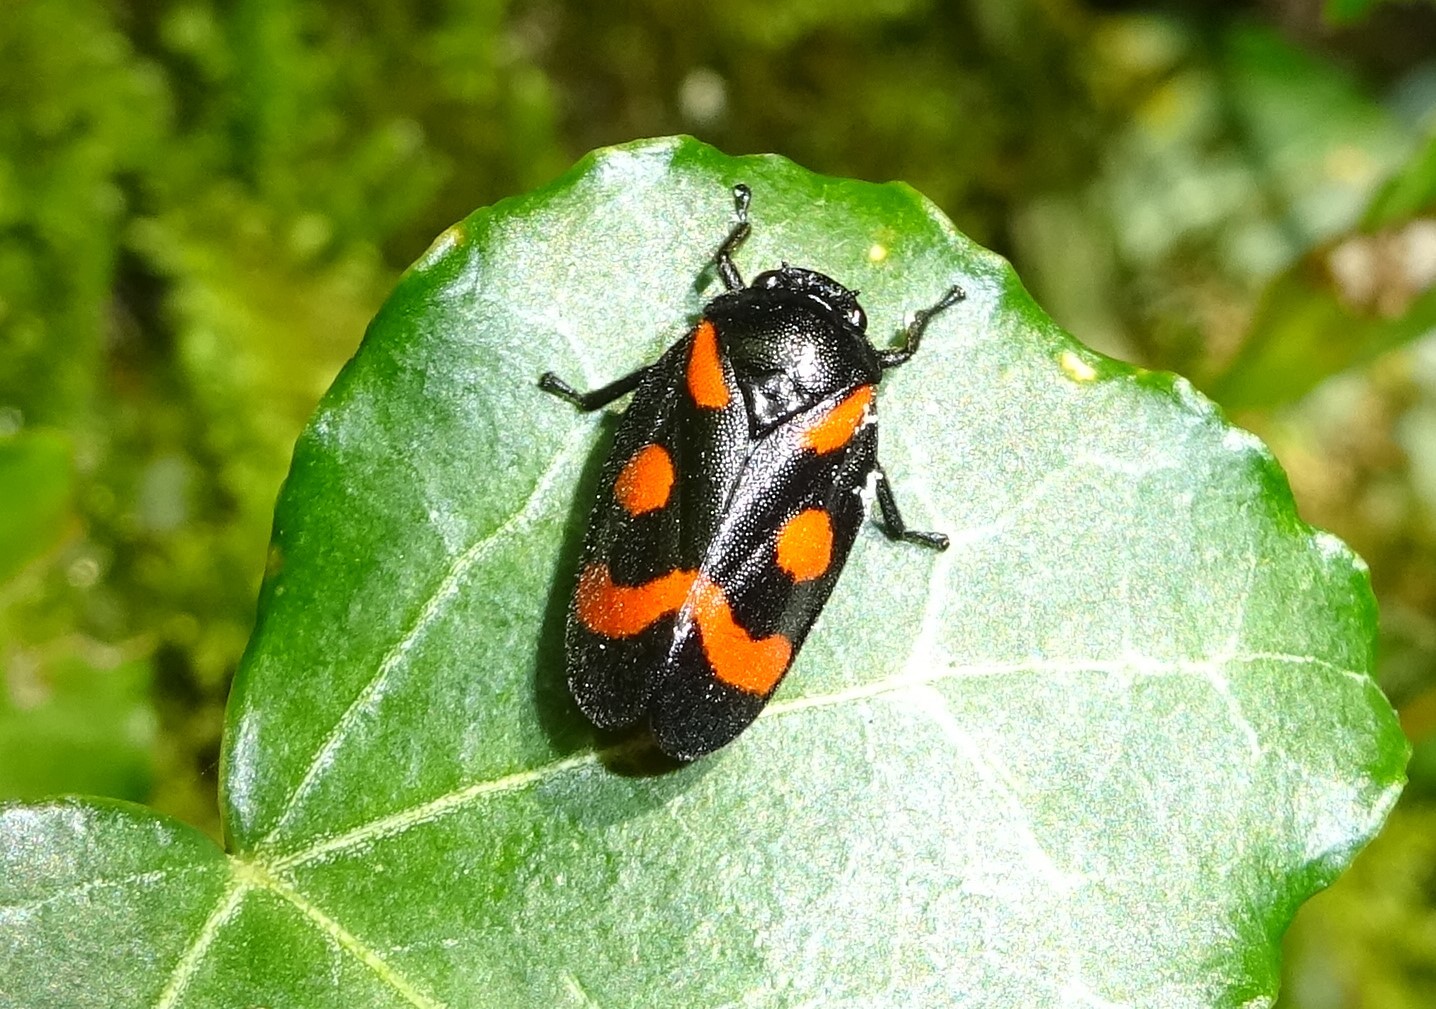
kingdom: Animalia
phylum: Arthropoda
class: Insecta
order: Hemiptera
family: Cercopidae
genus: Cercopis
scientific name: Cercopis
